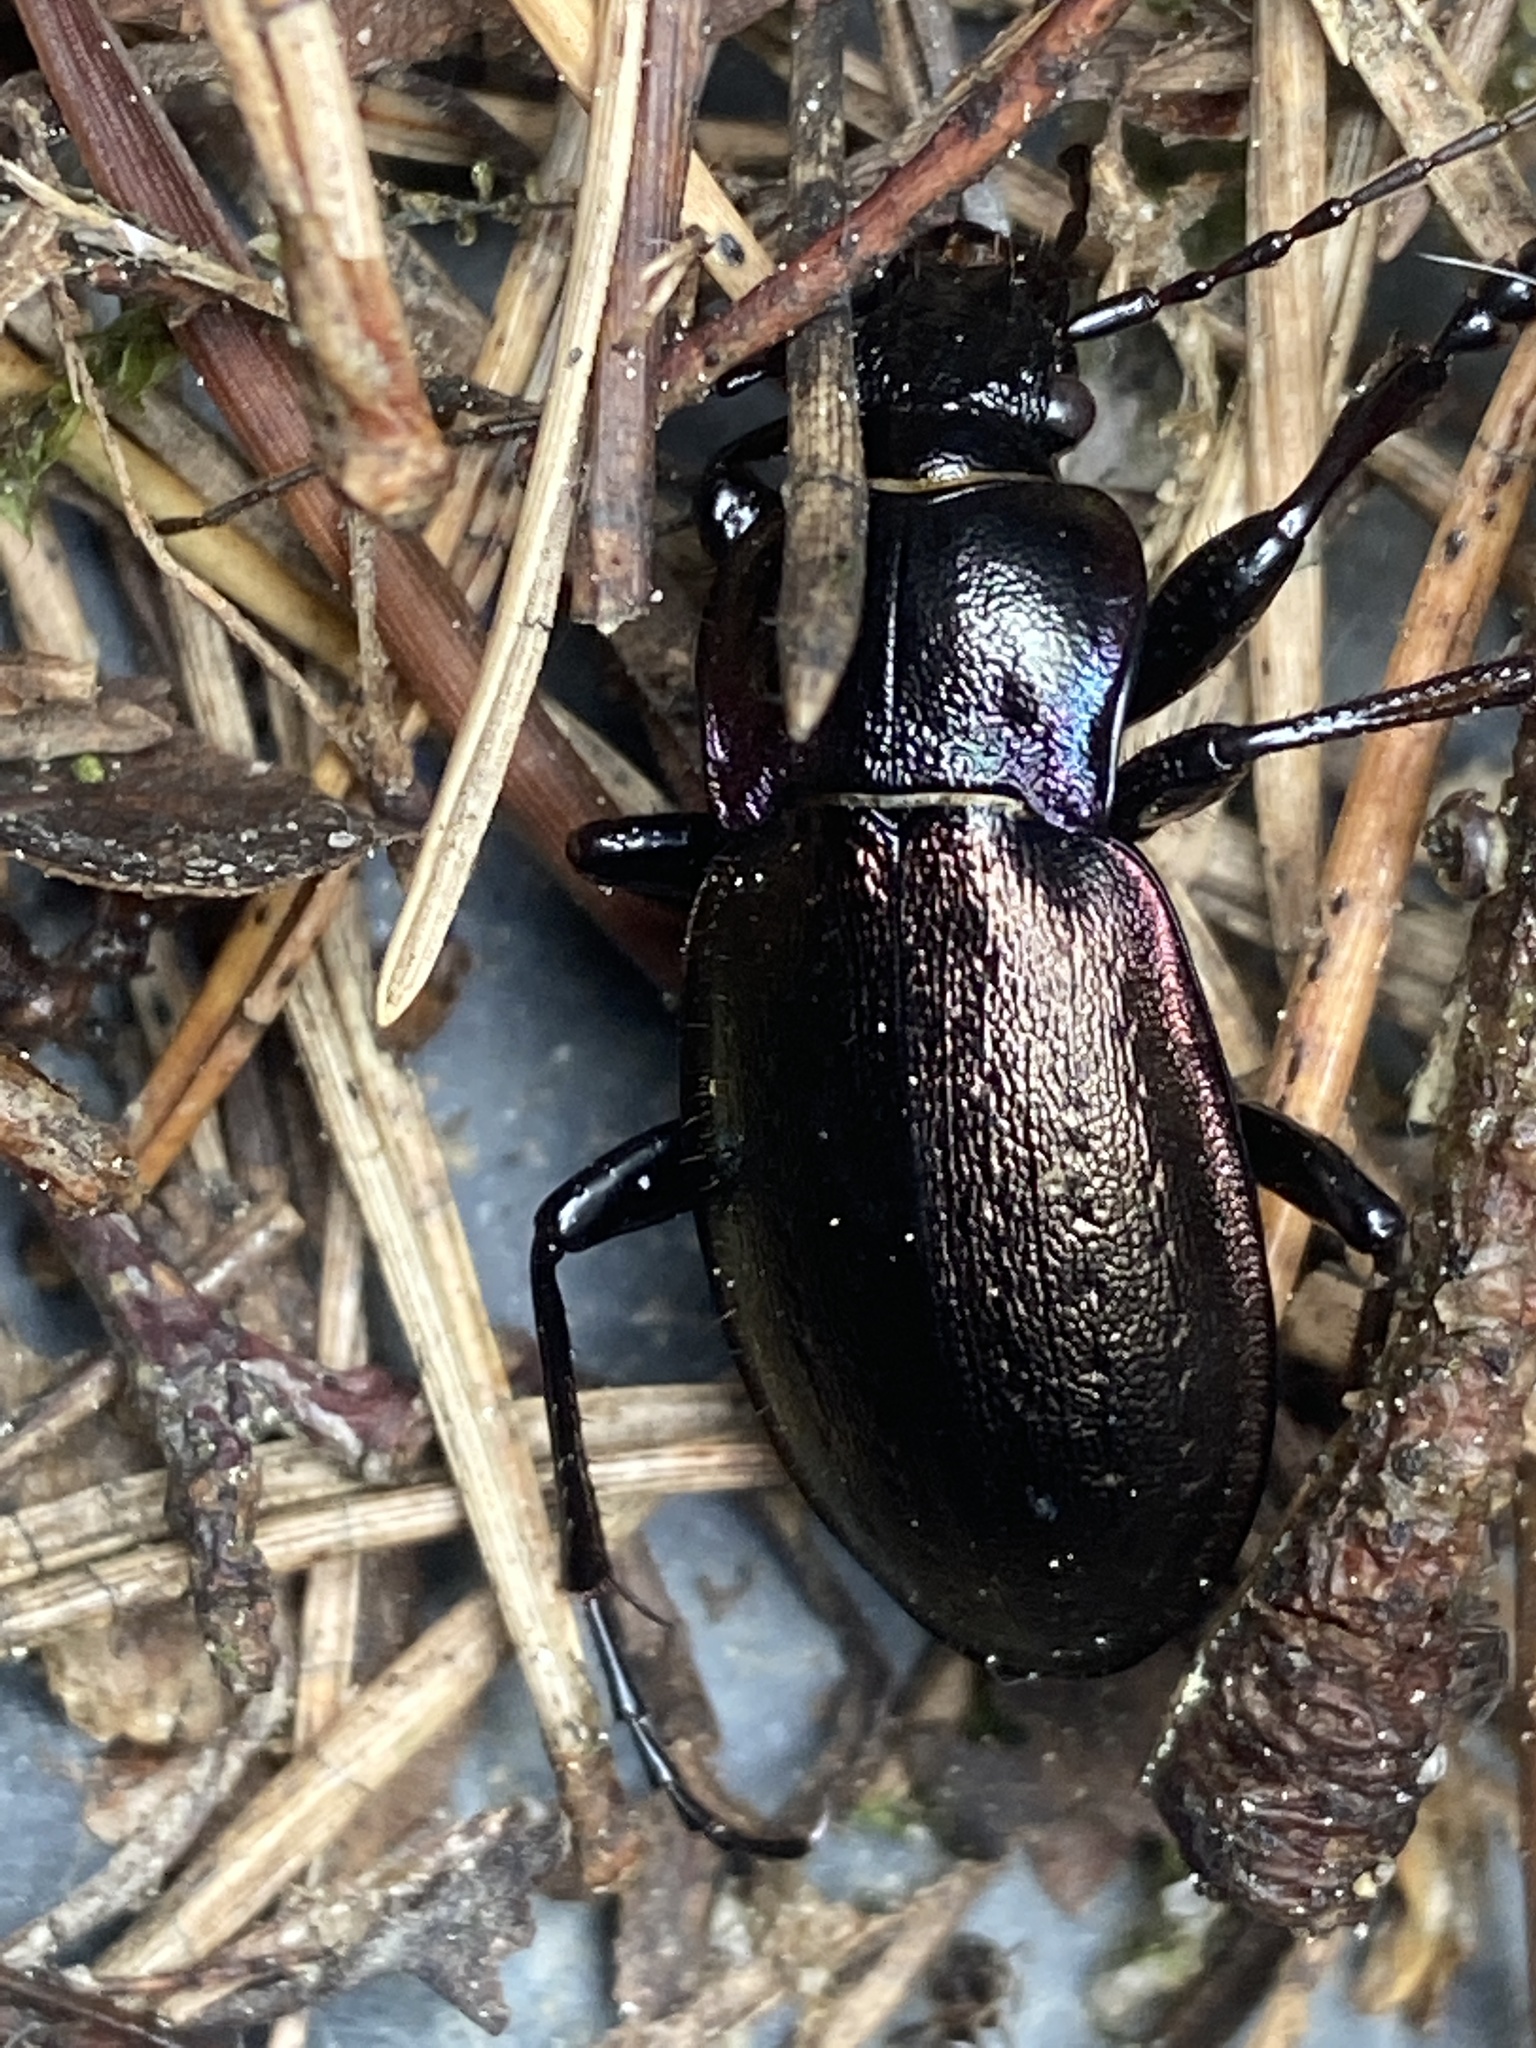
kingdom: Animalia
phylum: Arthropoda
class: Insecta
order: Coleoptera
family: Carabidae
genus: Carabus
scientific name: Carabus nemoralis
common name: European ground beetle
